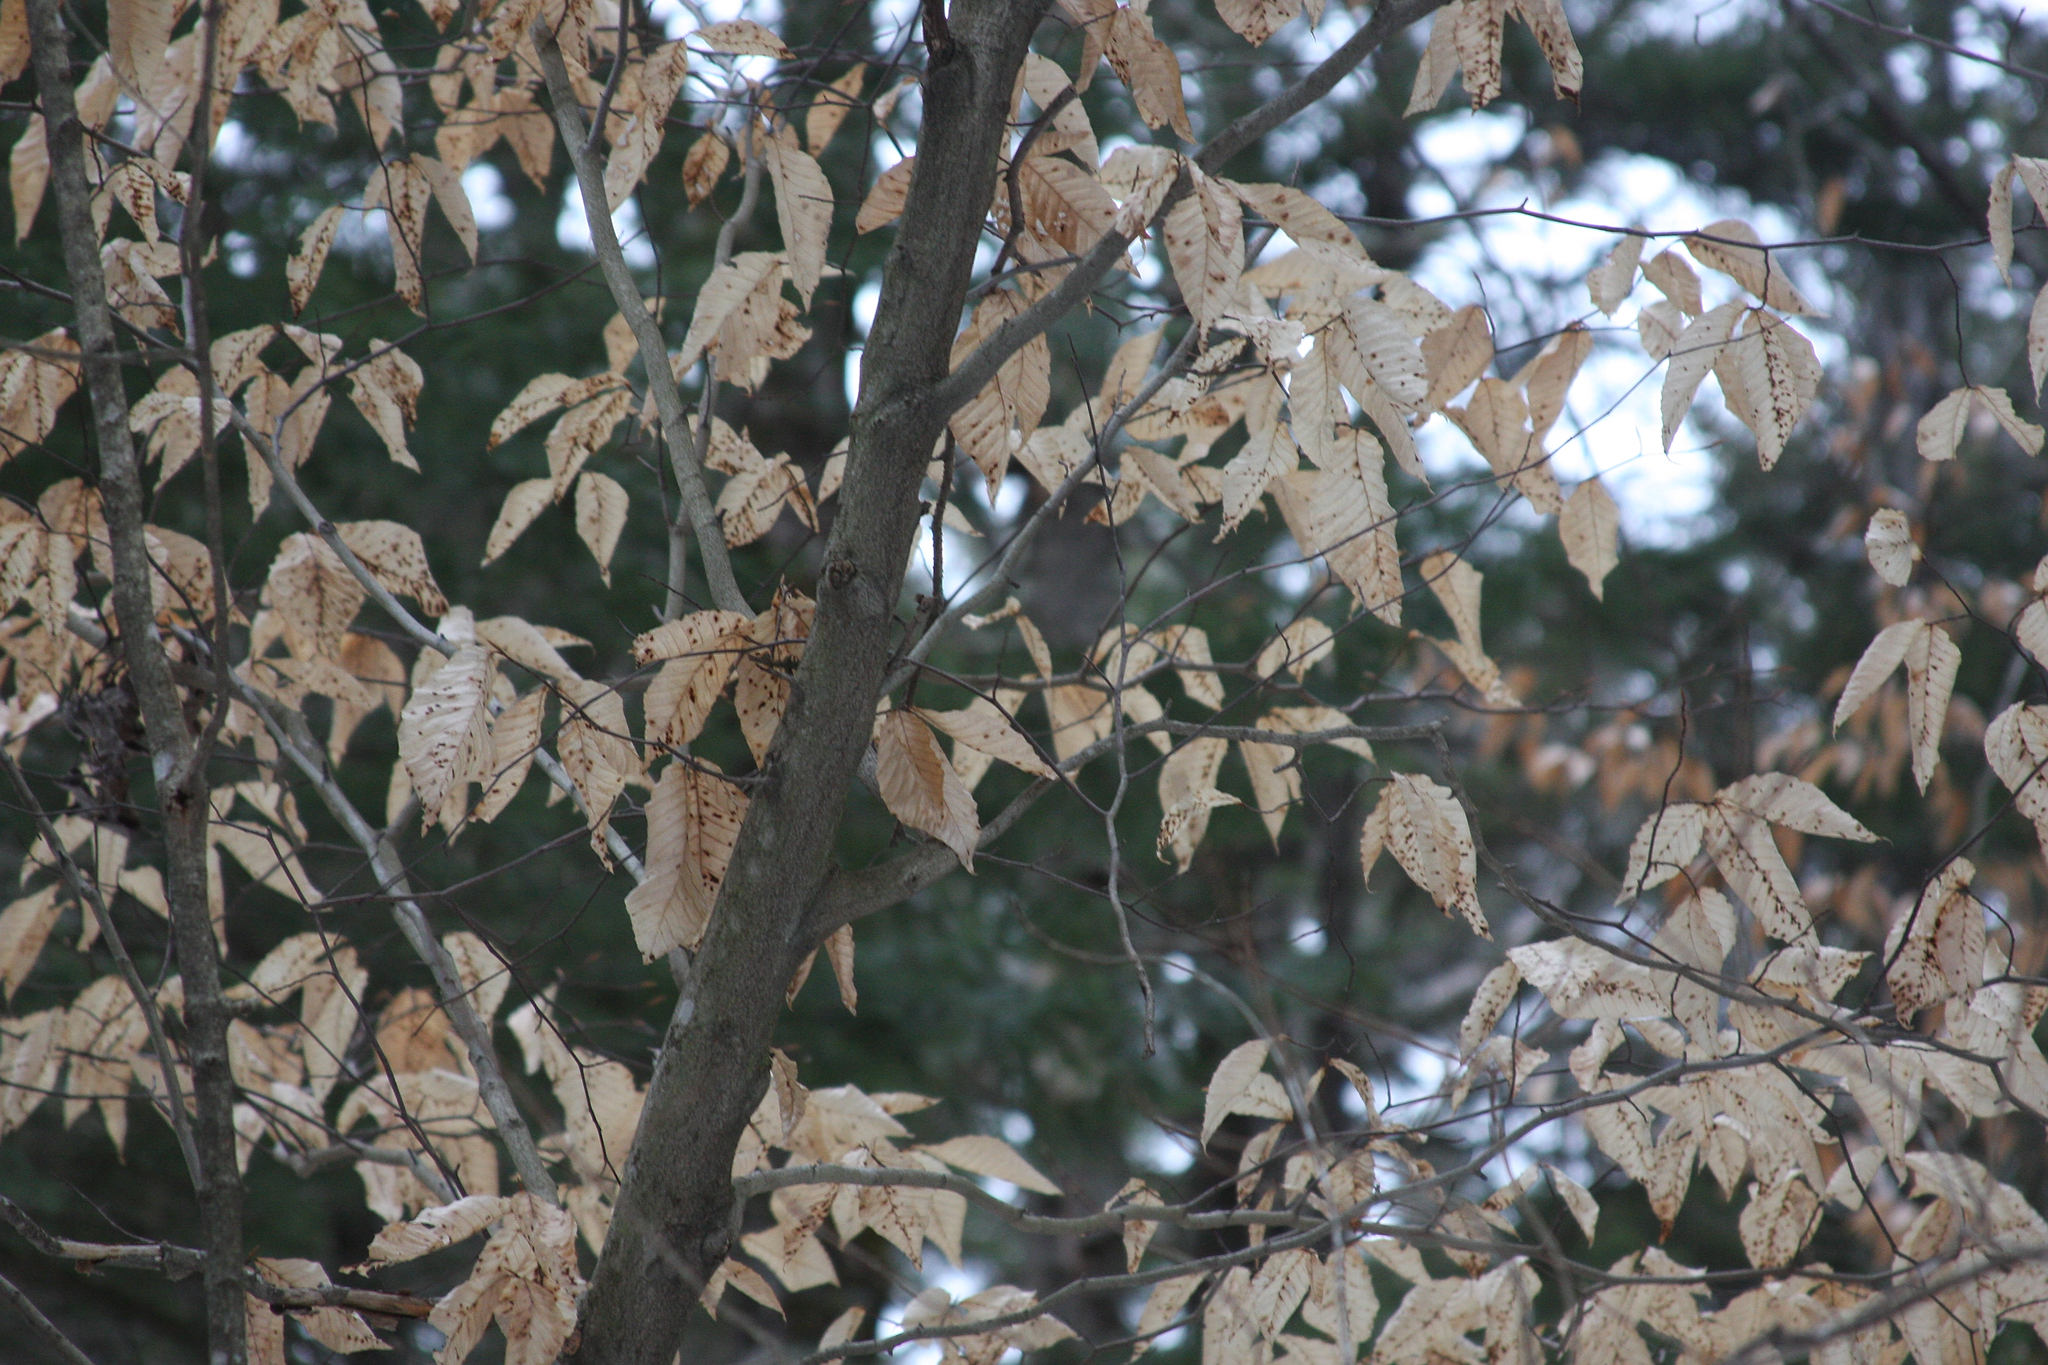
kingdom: Plantae
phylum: Tracheophyta
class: Magnoliopsida
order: Fagales
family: Fagaceae
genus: Fagus
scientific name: Fagus grandifolia
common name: American beech
